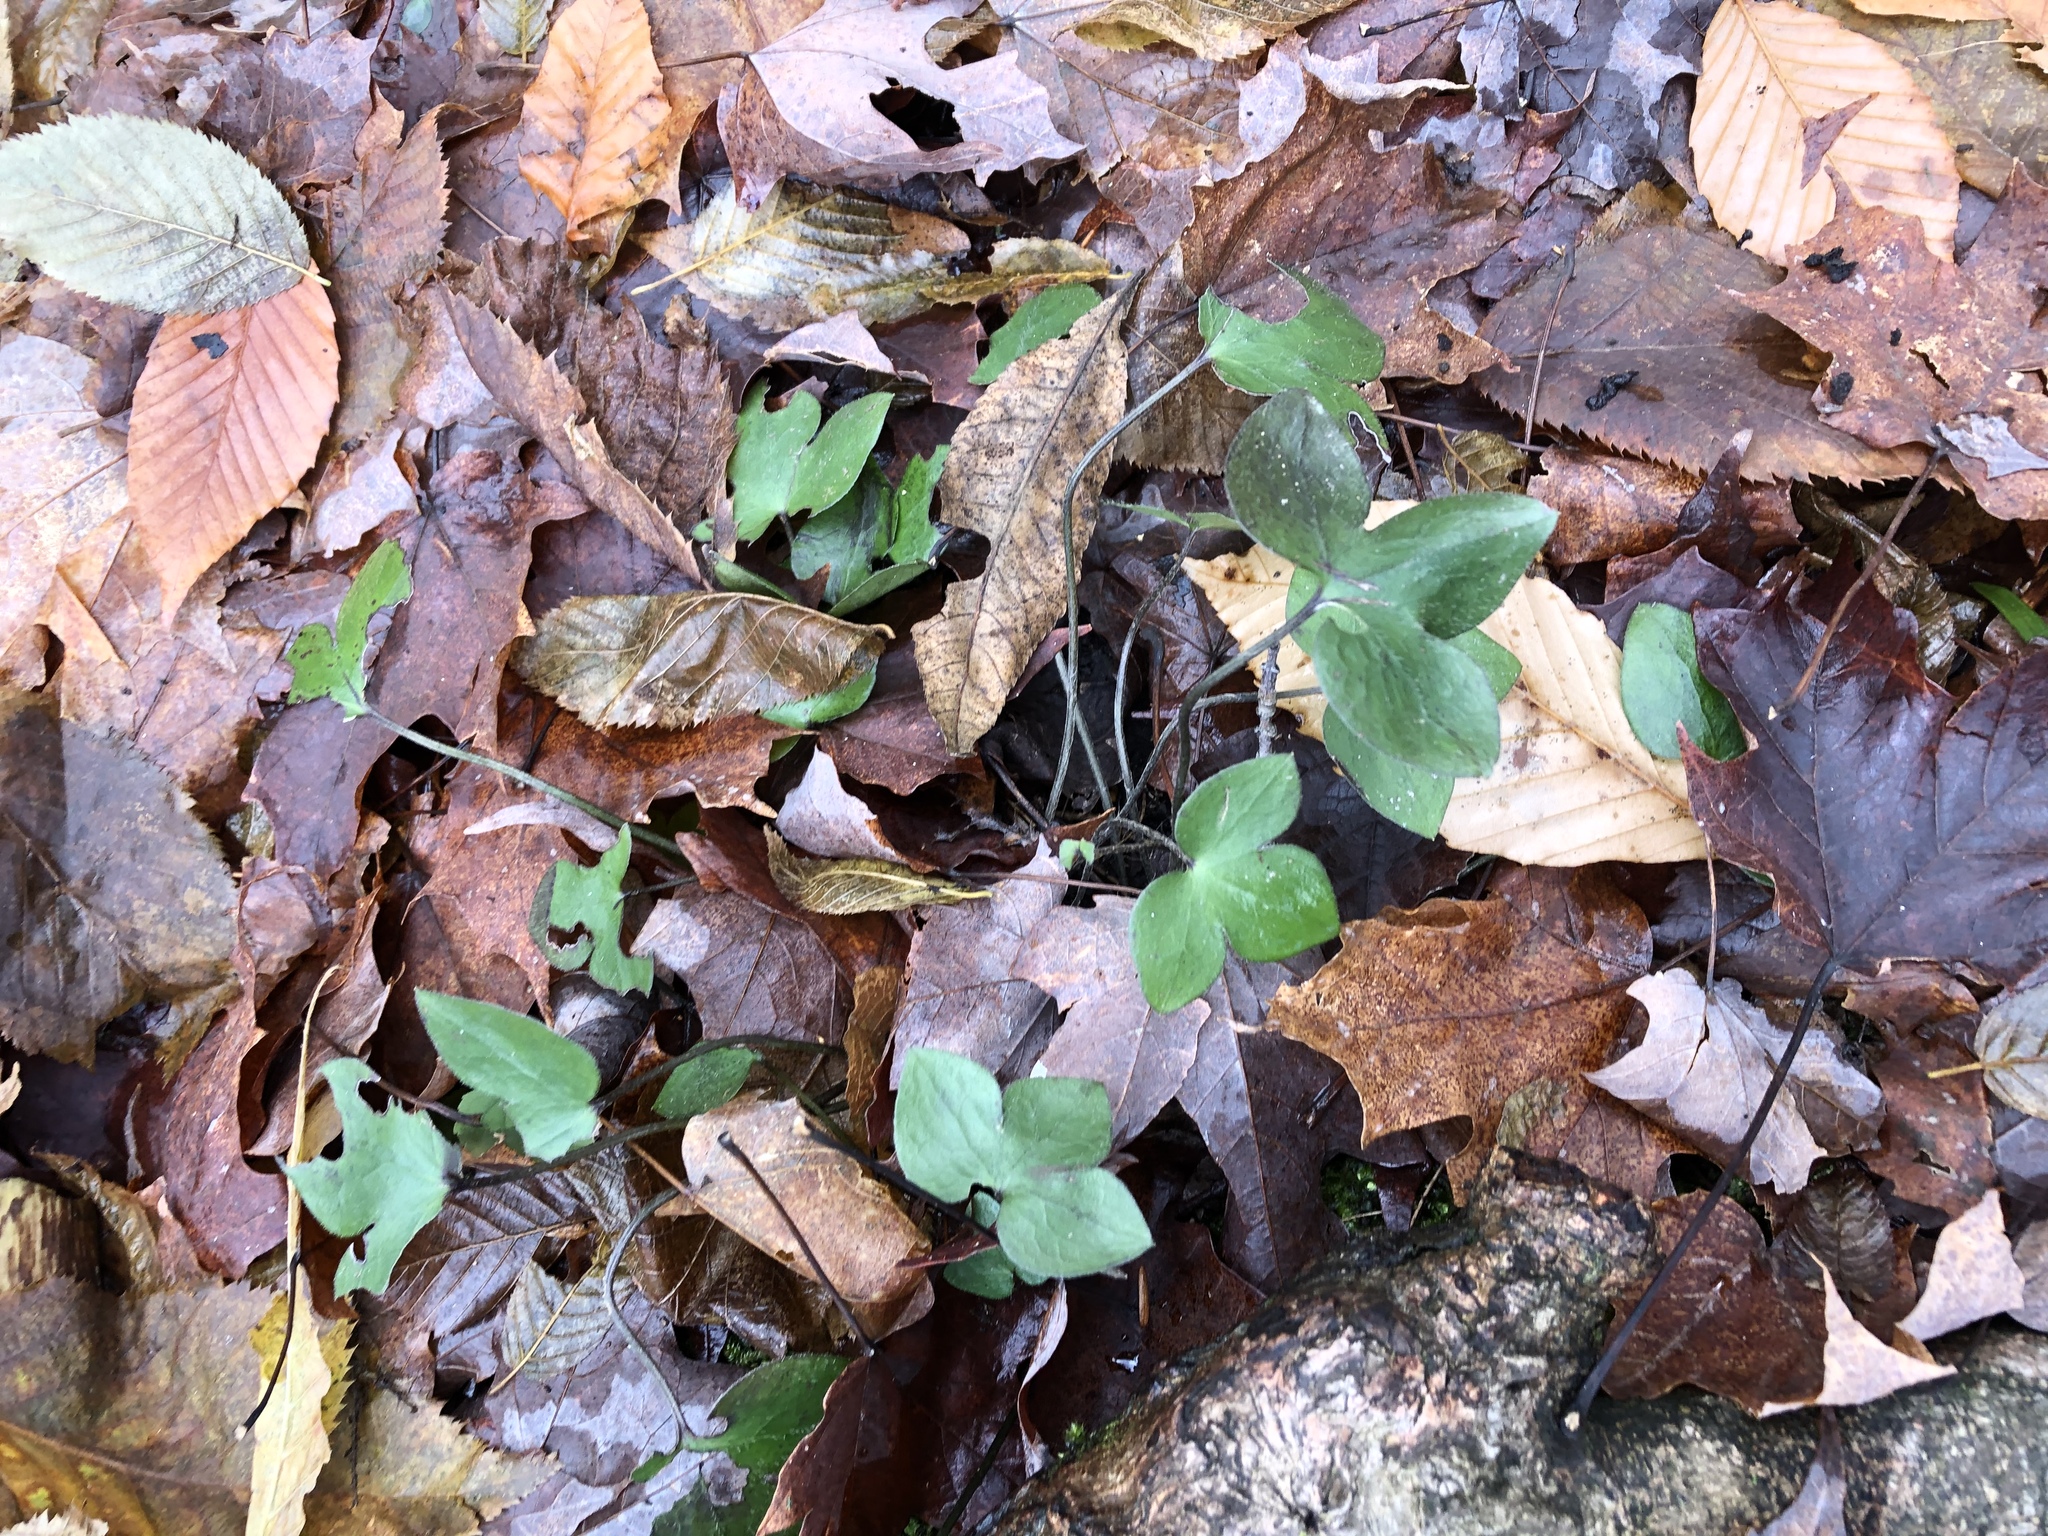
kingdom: Plantae
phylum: Tracheophyta
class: Magnoliopsida
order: Ranunculales
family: Ranunculaceae
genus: Hepatica
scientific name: Hepatica acutiloba
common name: Sharp-lobed hepatica
